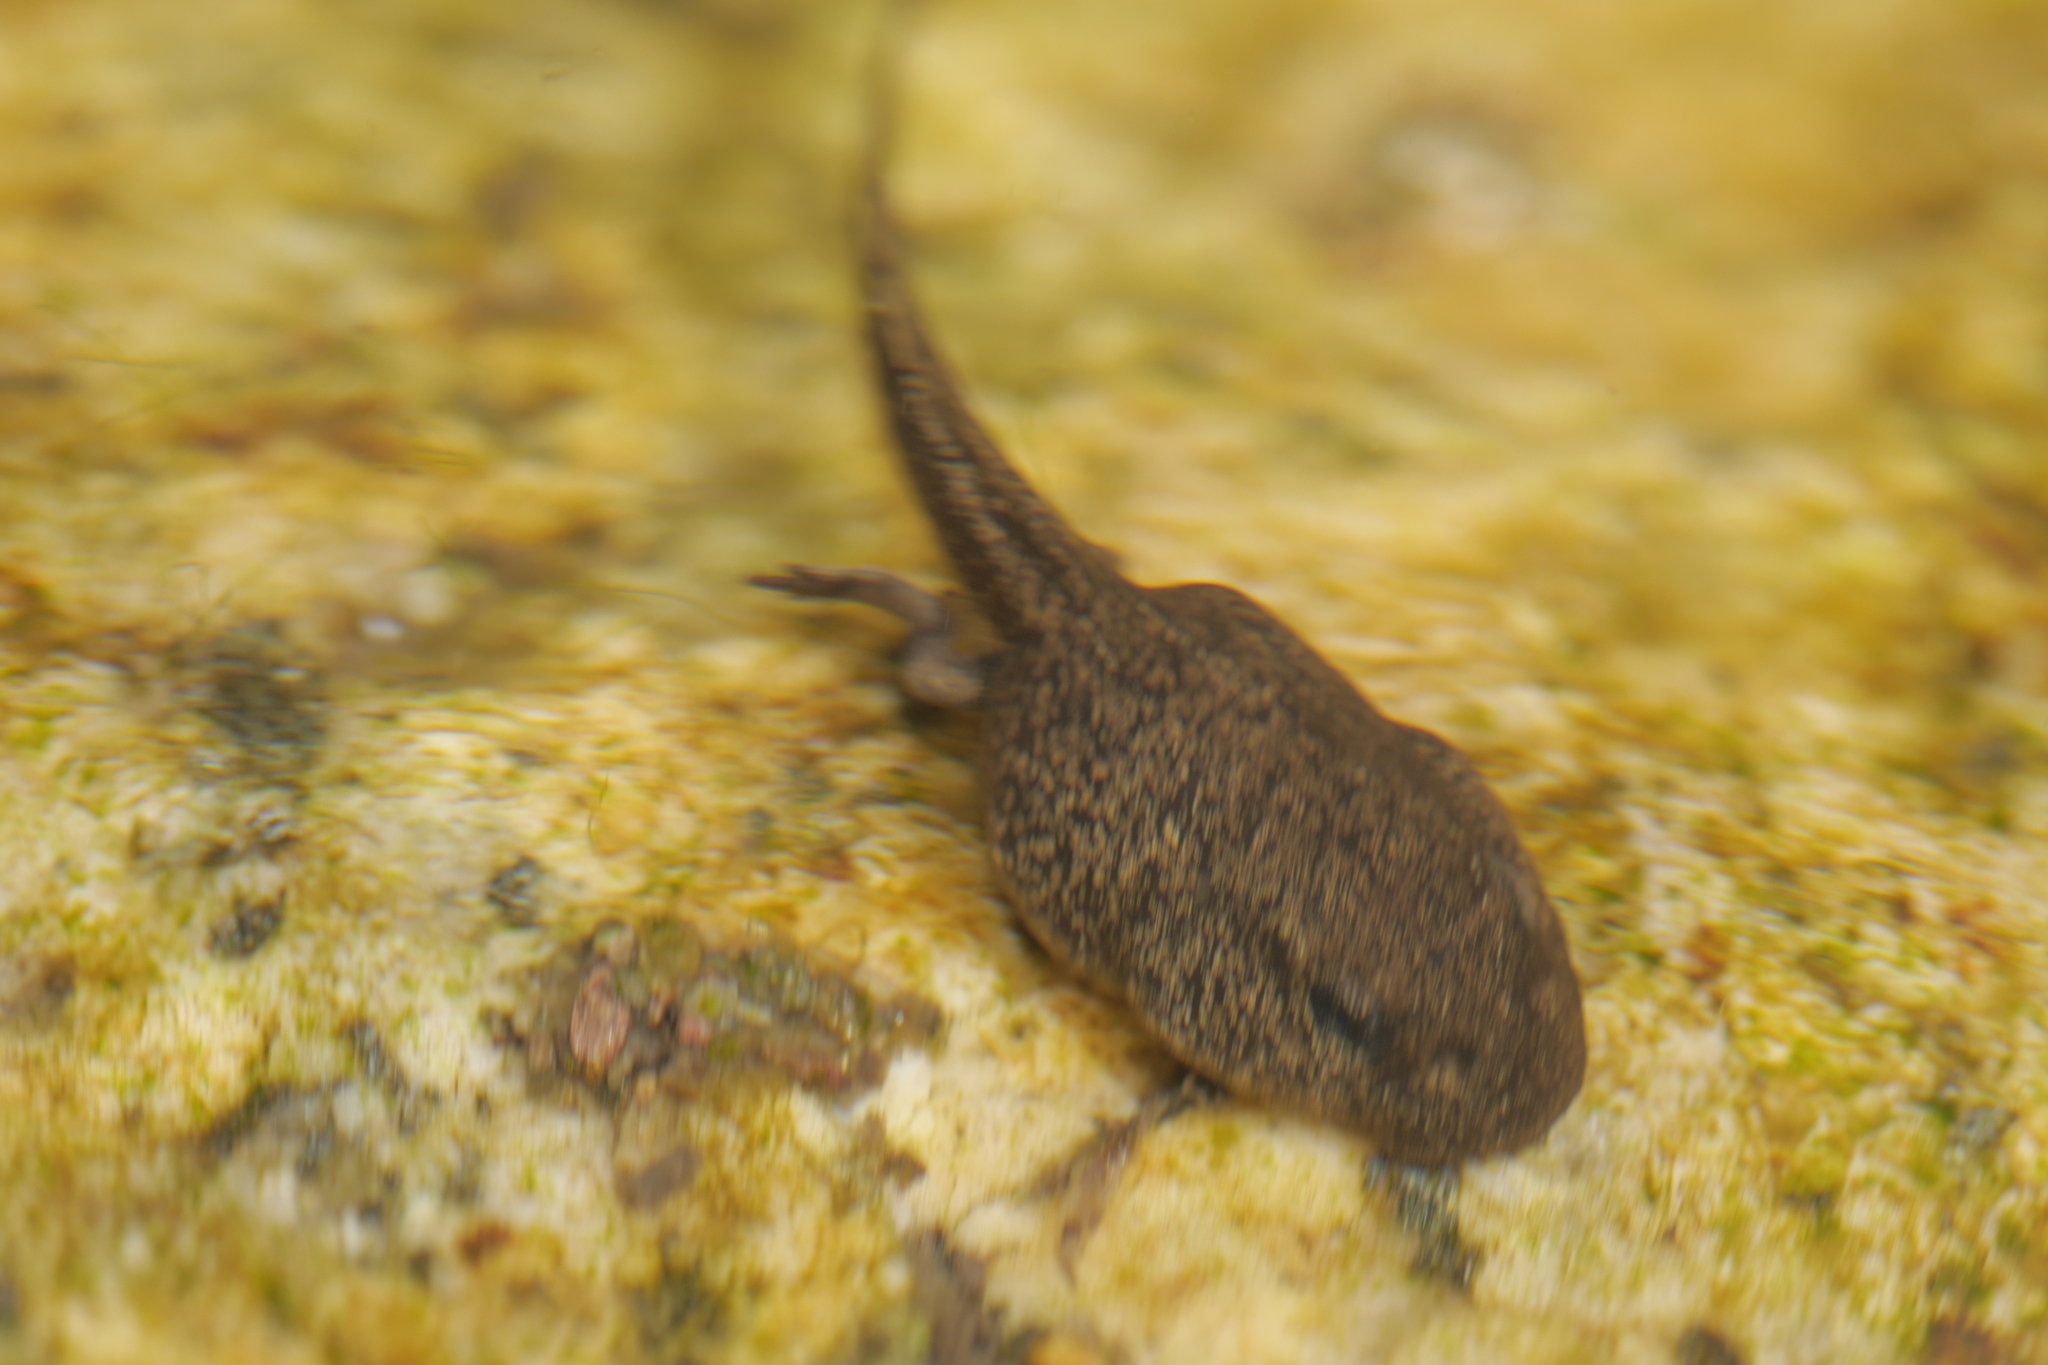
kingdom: Animalia
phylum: Chordata
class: Amphibia
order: Anura
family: Bufonidae
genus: Bufo
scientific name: Bufo spinosus
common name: Western common toad
